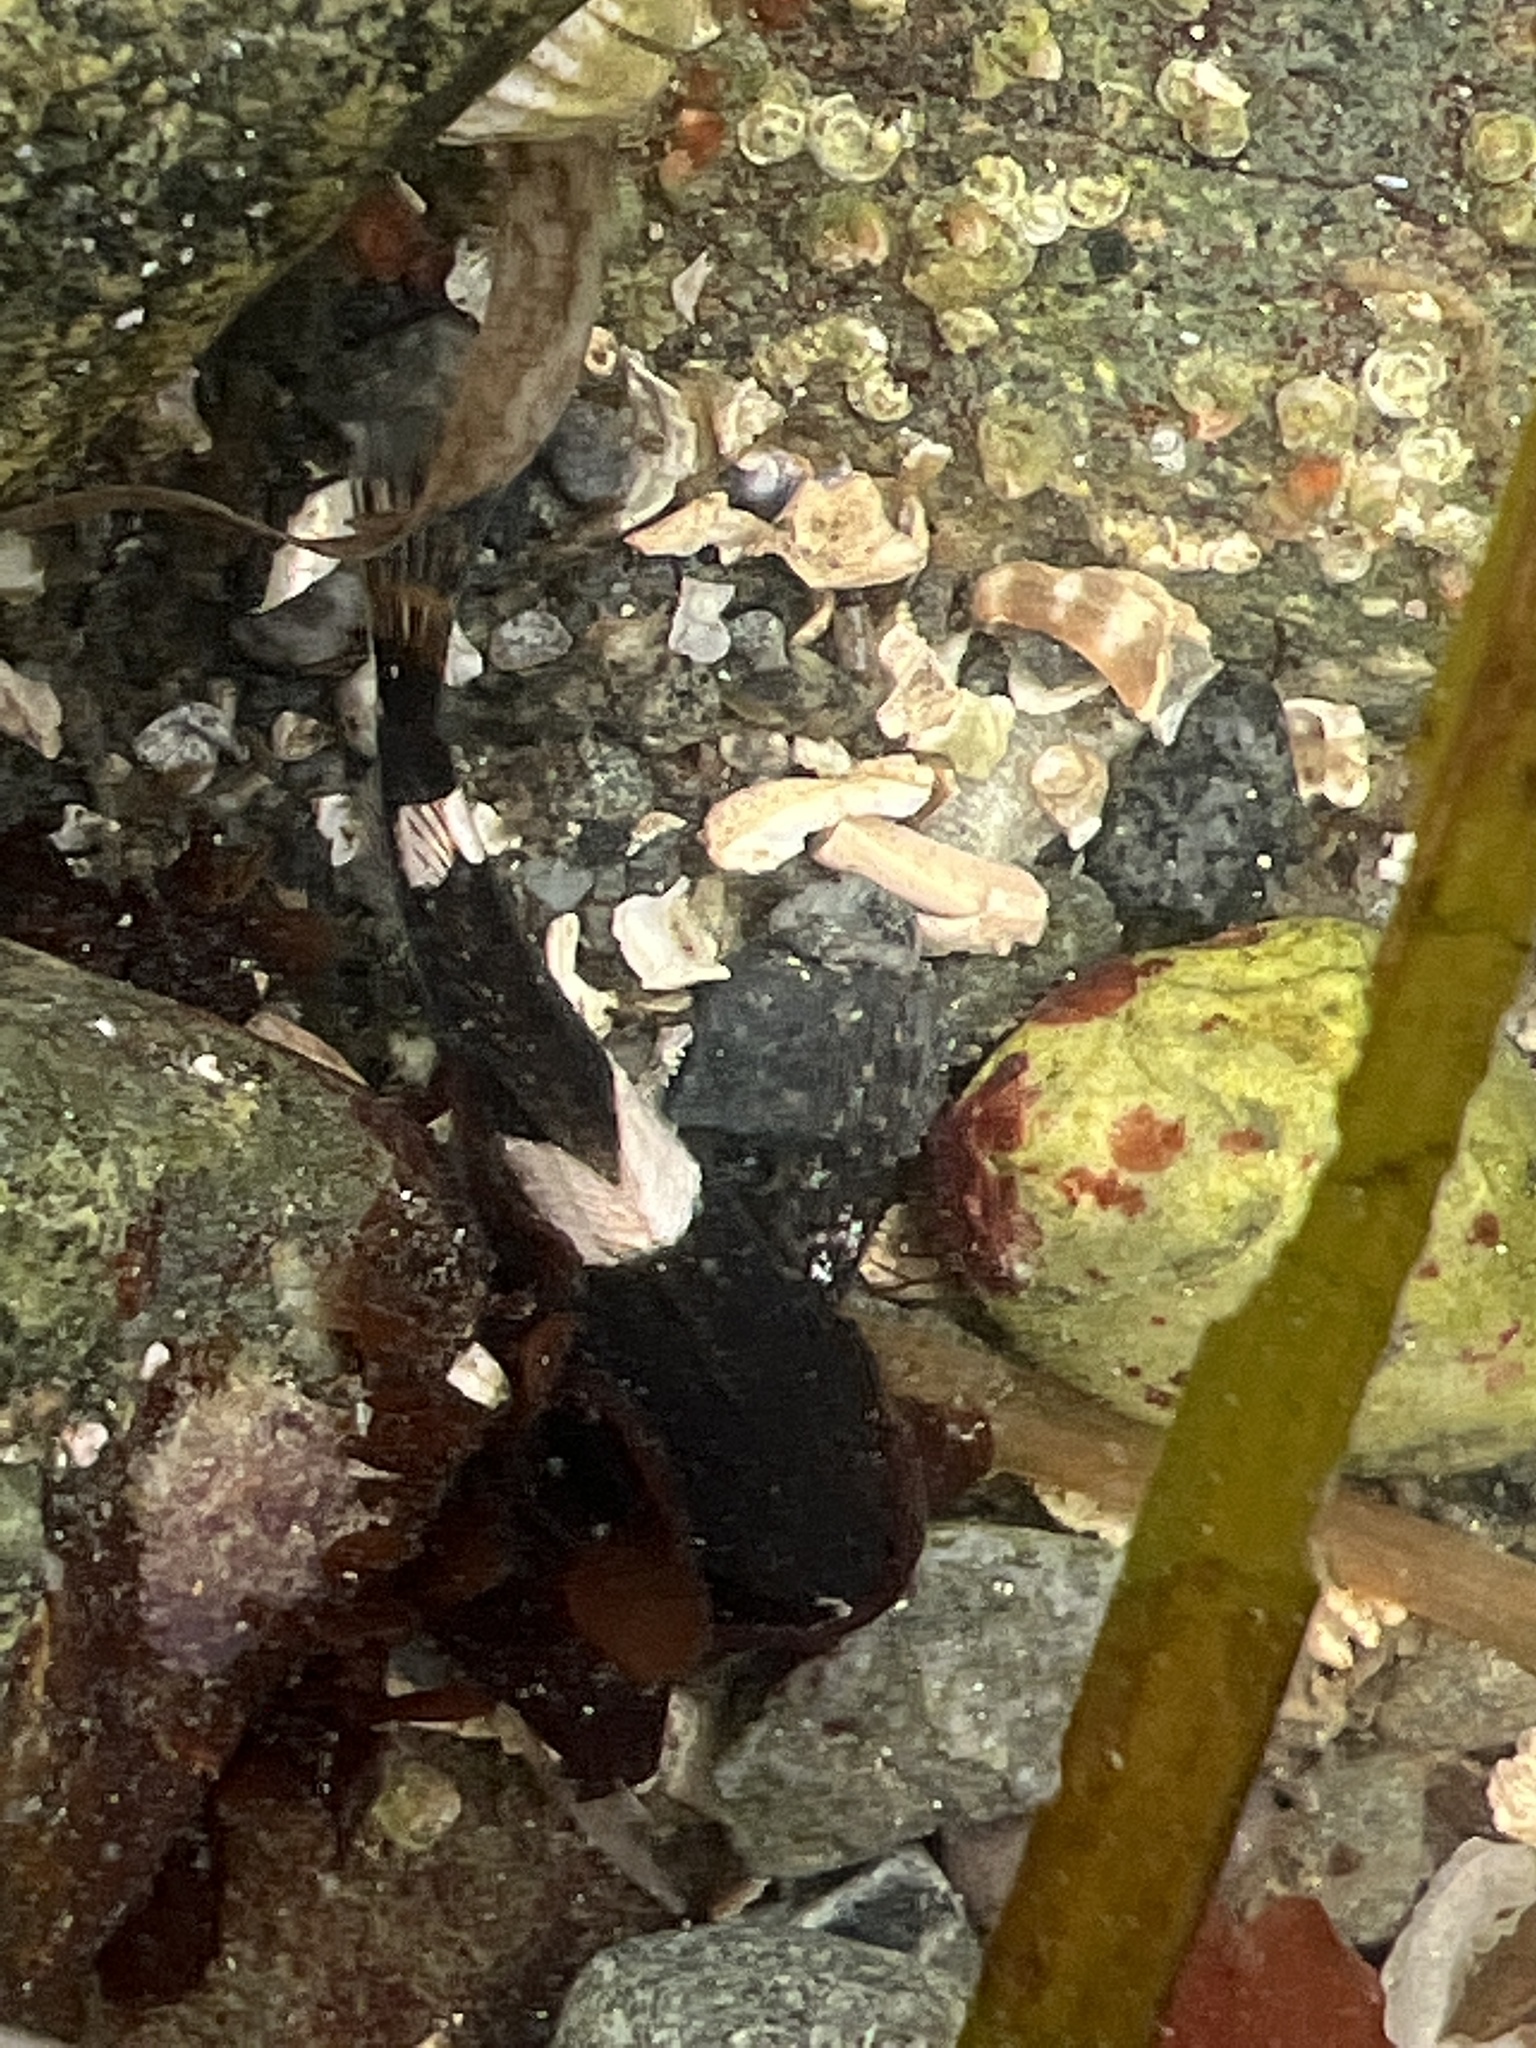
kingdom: Animalia
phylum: Chordata
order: Scorpaeniformes
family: Cottidae
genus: Clinocottus
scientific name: Clinocottus globiceps
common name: Mosshead sculpin
